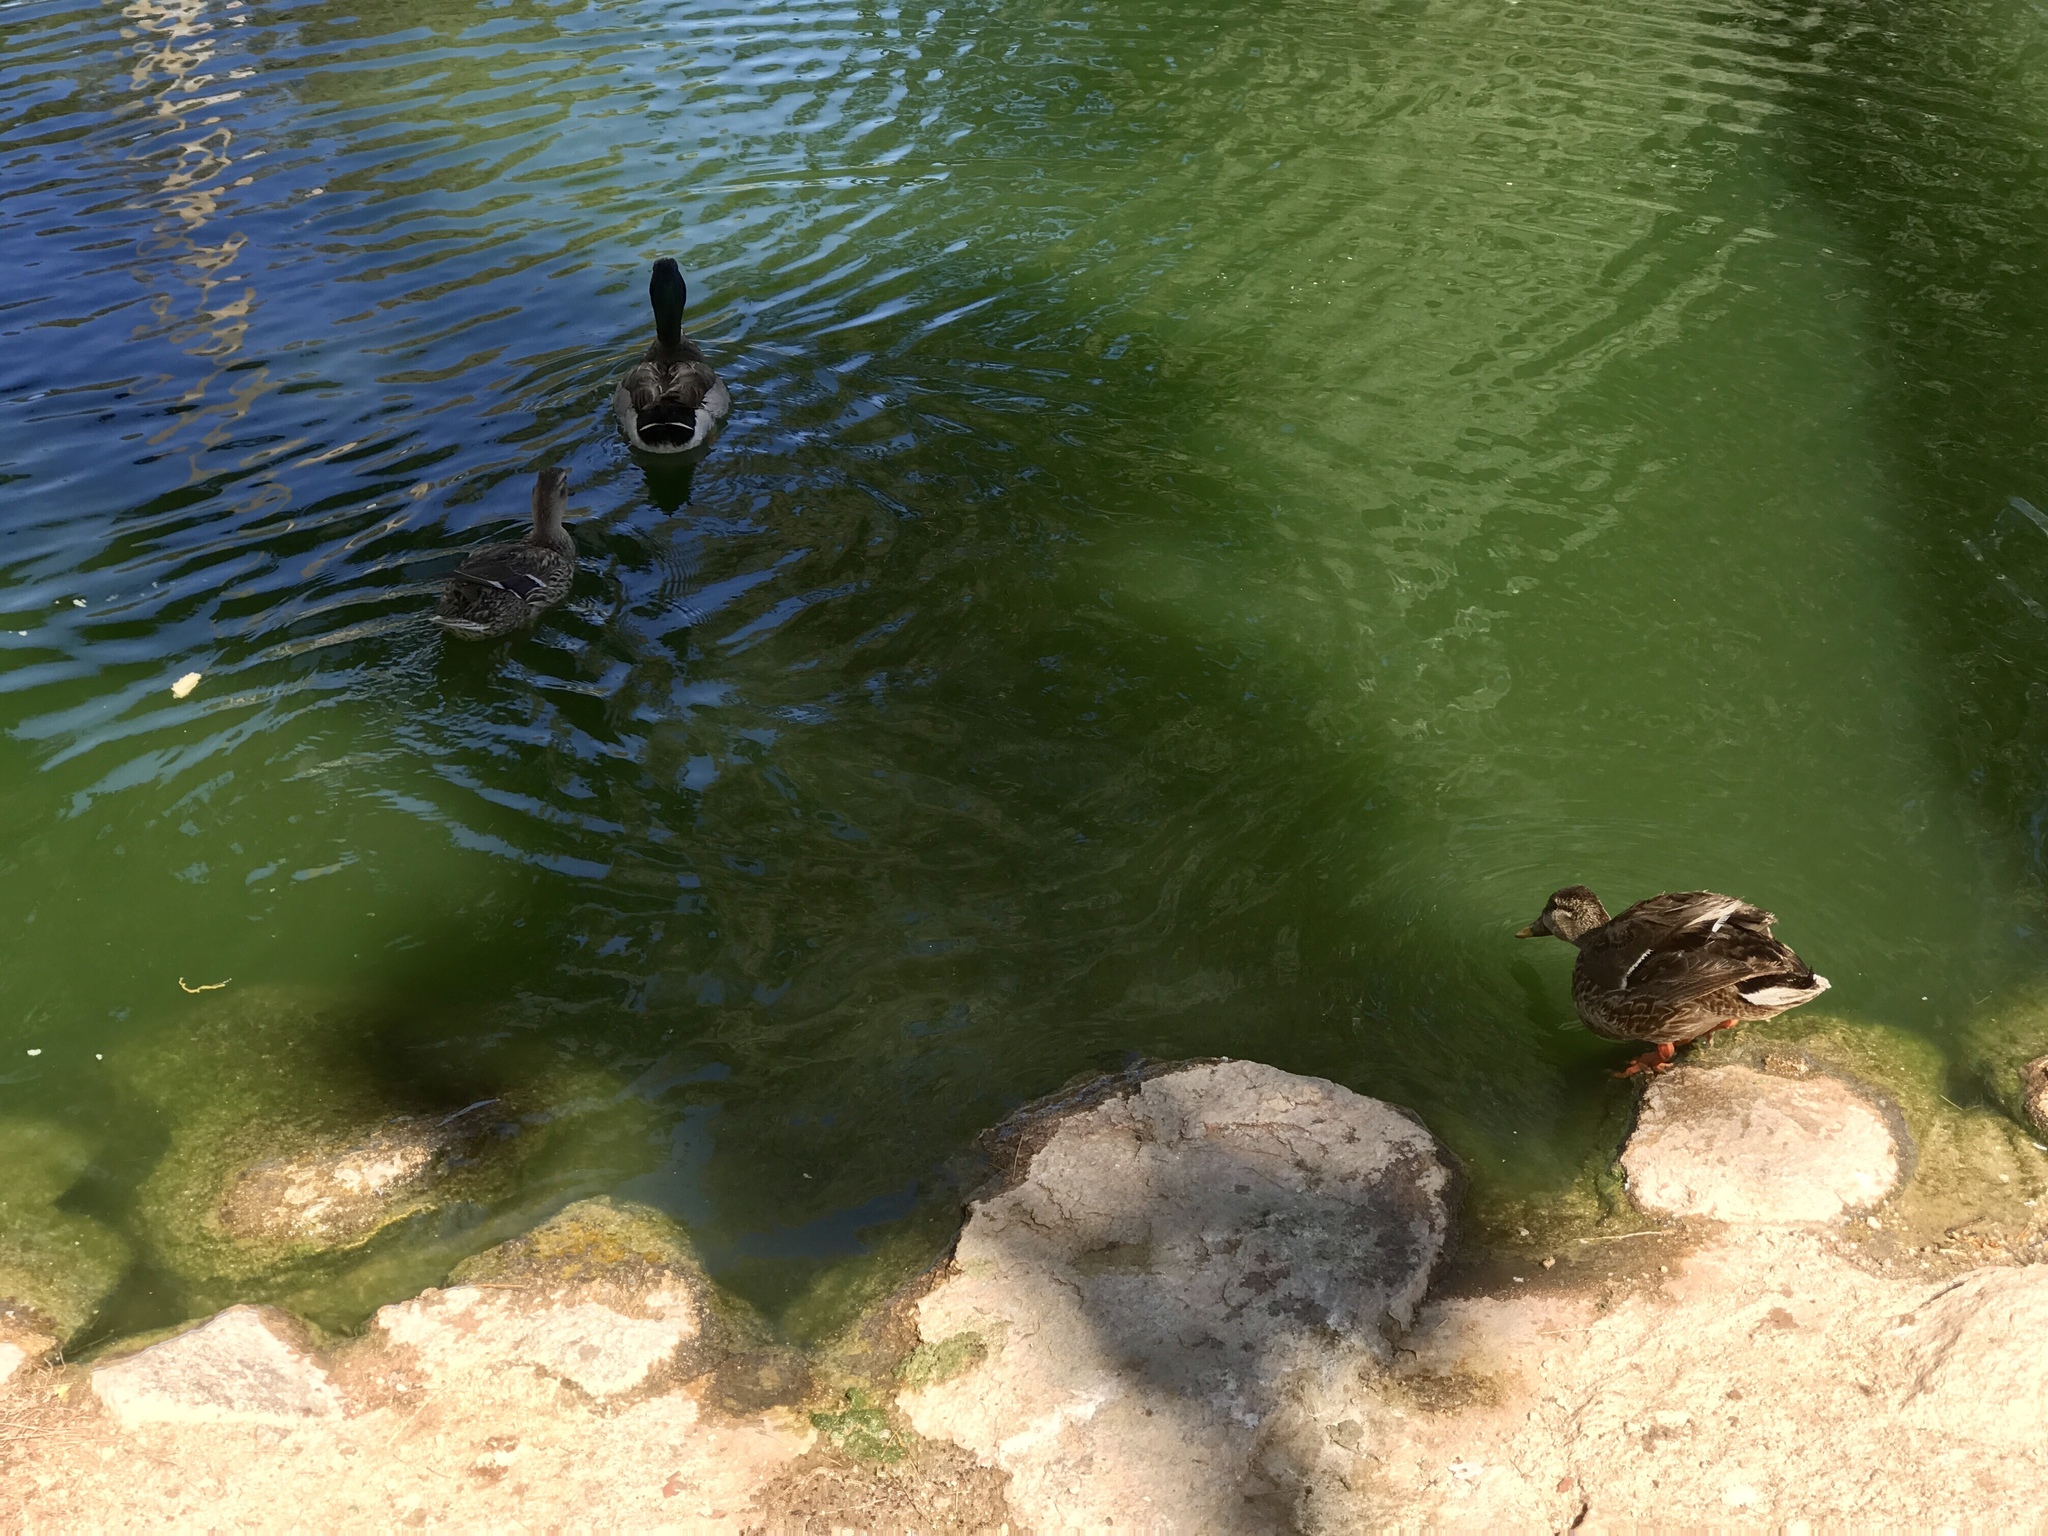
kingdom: Animalia
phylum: Chordata
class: Aves
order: Anseriformes
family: Anatidae
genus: Anas
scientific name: Anas platyrhynchos
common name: Mallard
